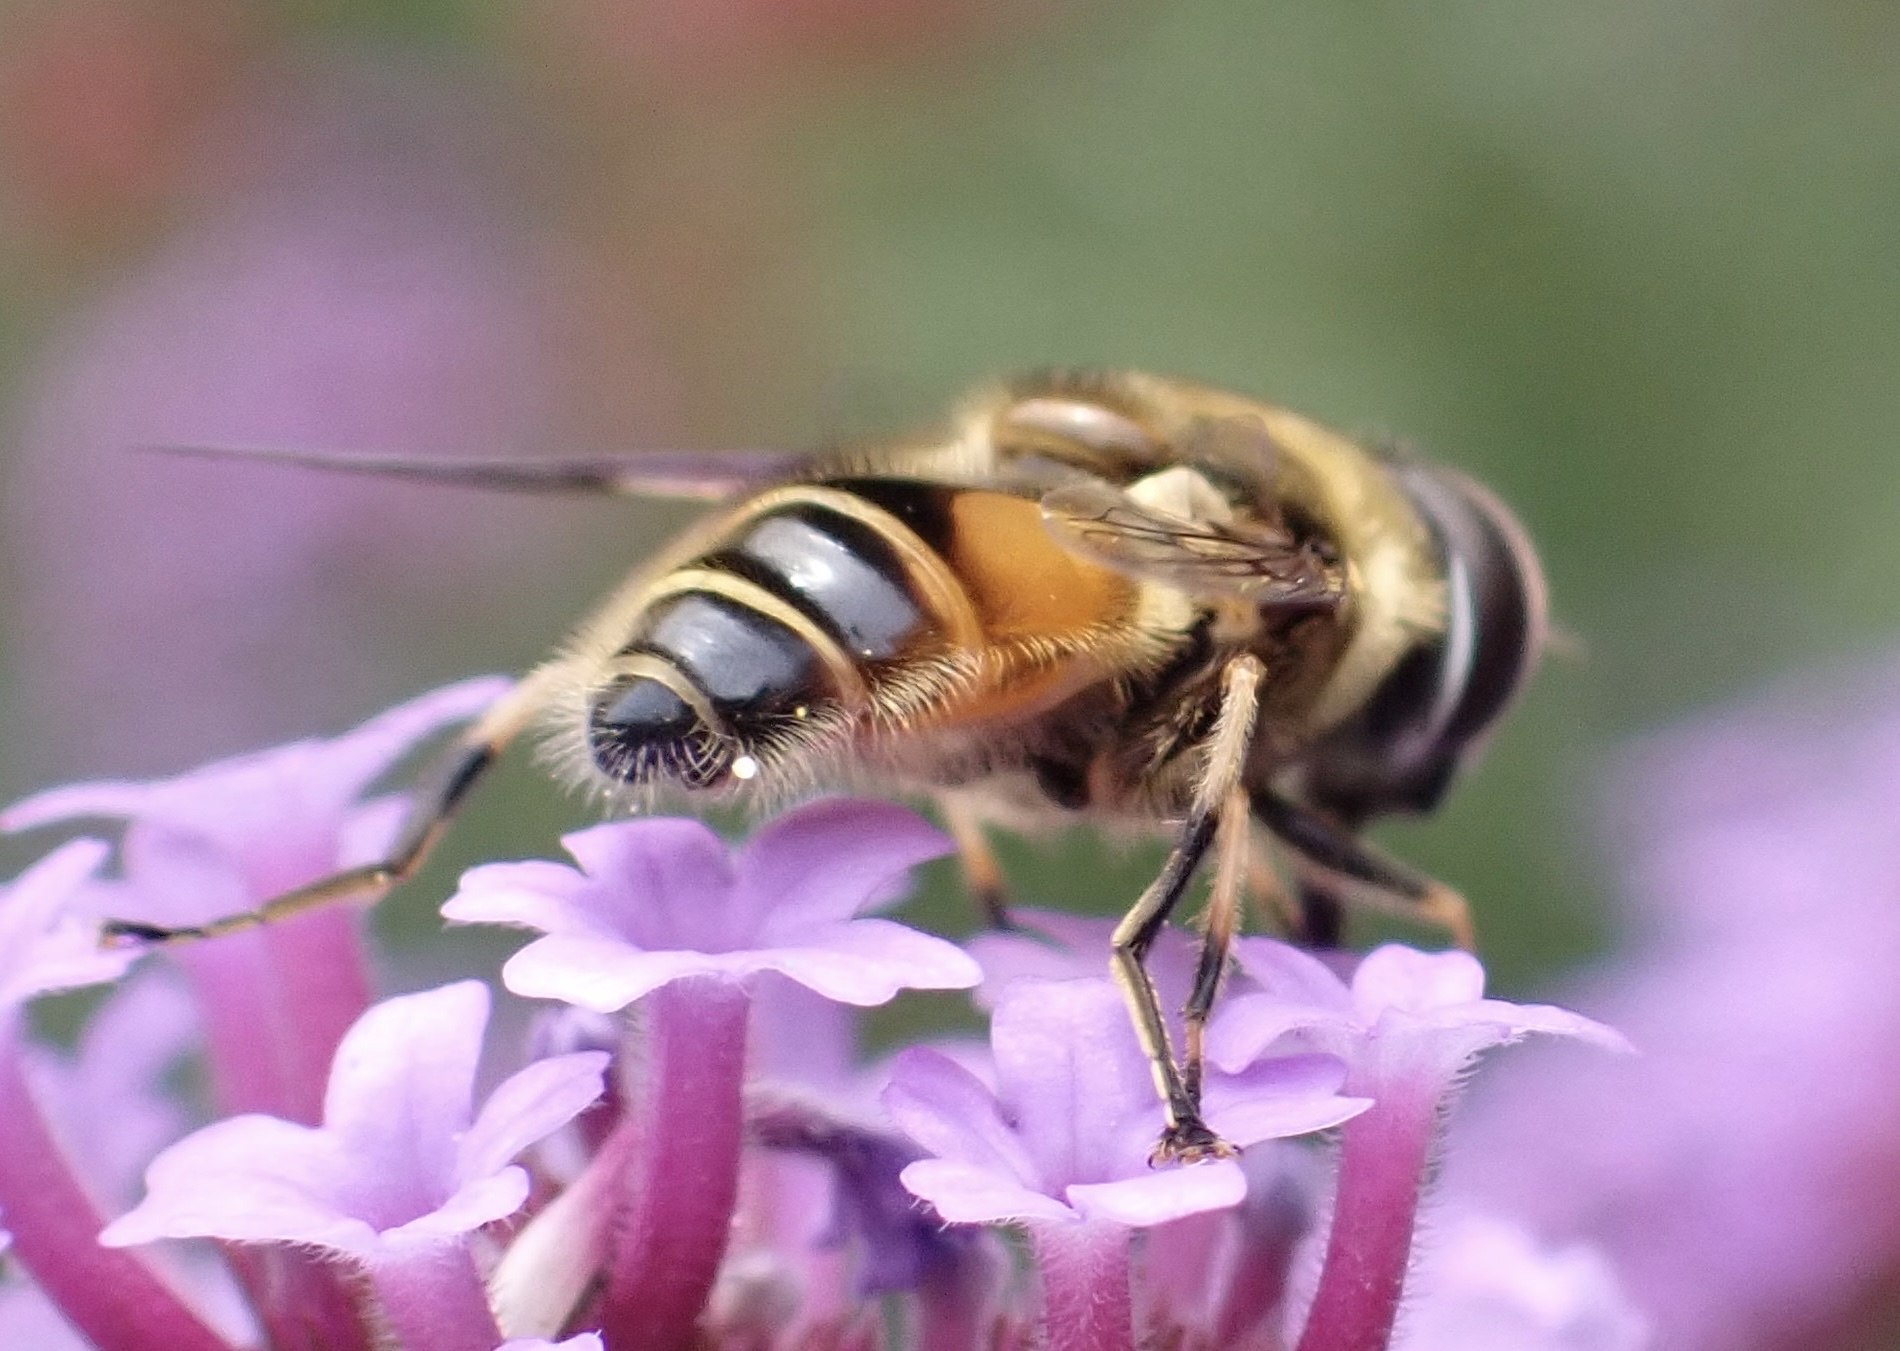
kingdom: Animalia
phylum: Arthropoda
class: Insecta
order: Diptera
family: Syrphidae
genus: Cheilosia
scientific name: Cheilosia morio
